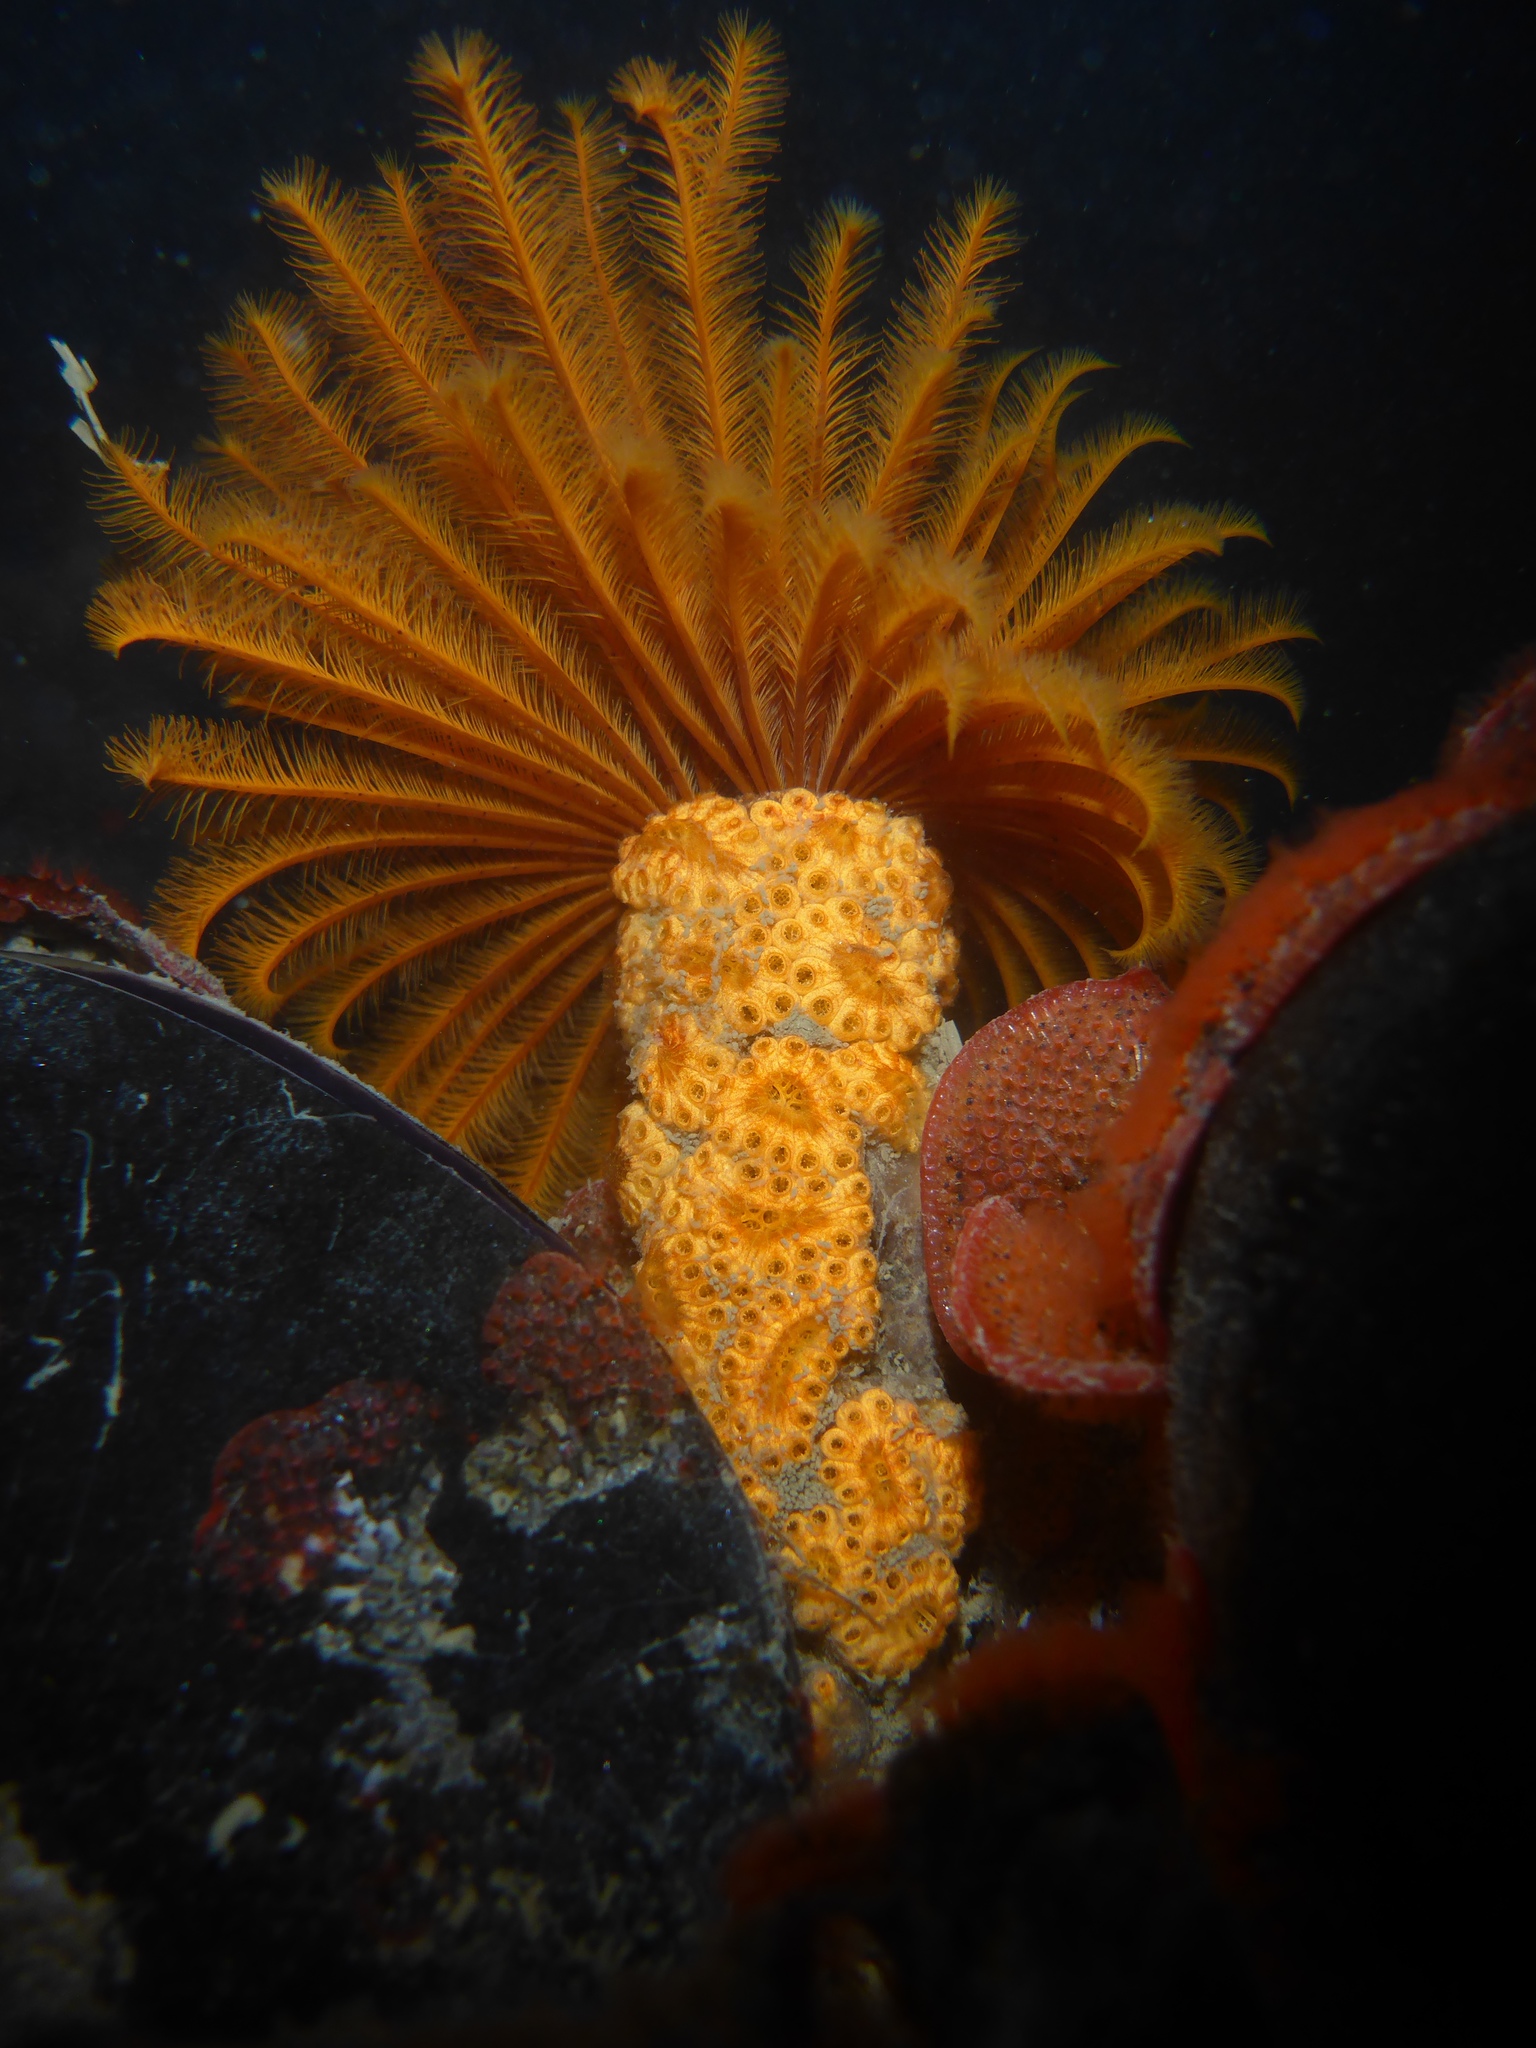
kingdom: Animalia
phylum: Annelida
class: Polychaeta
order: Sabellida
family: Sabellidae
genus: Eudistylia
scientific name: Eudistylia polymorpha
